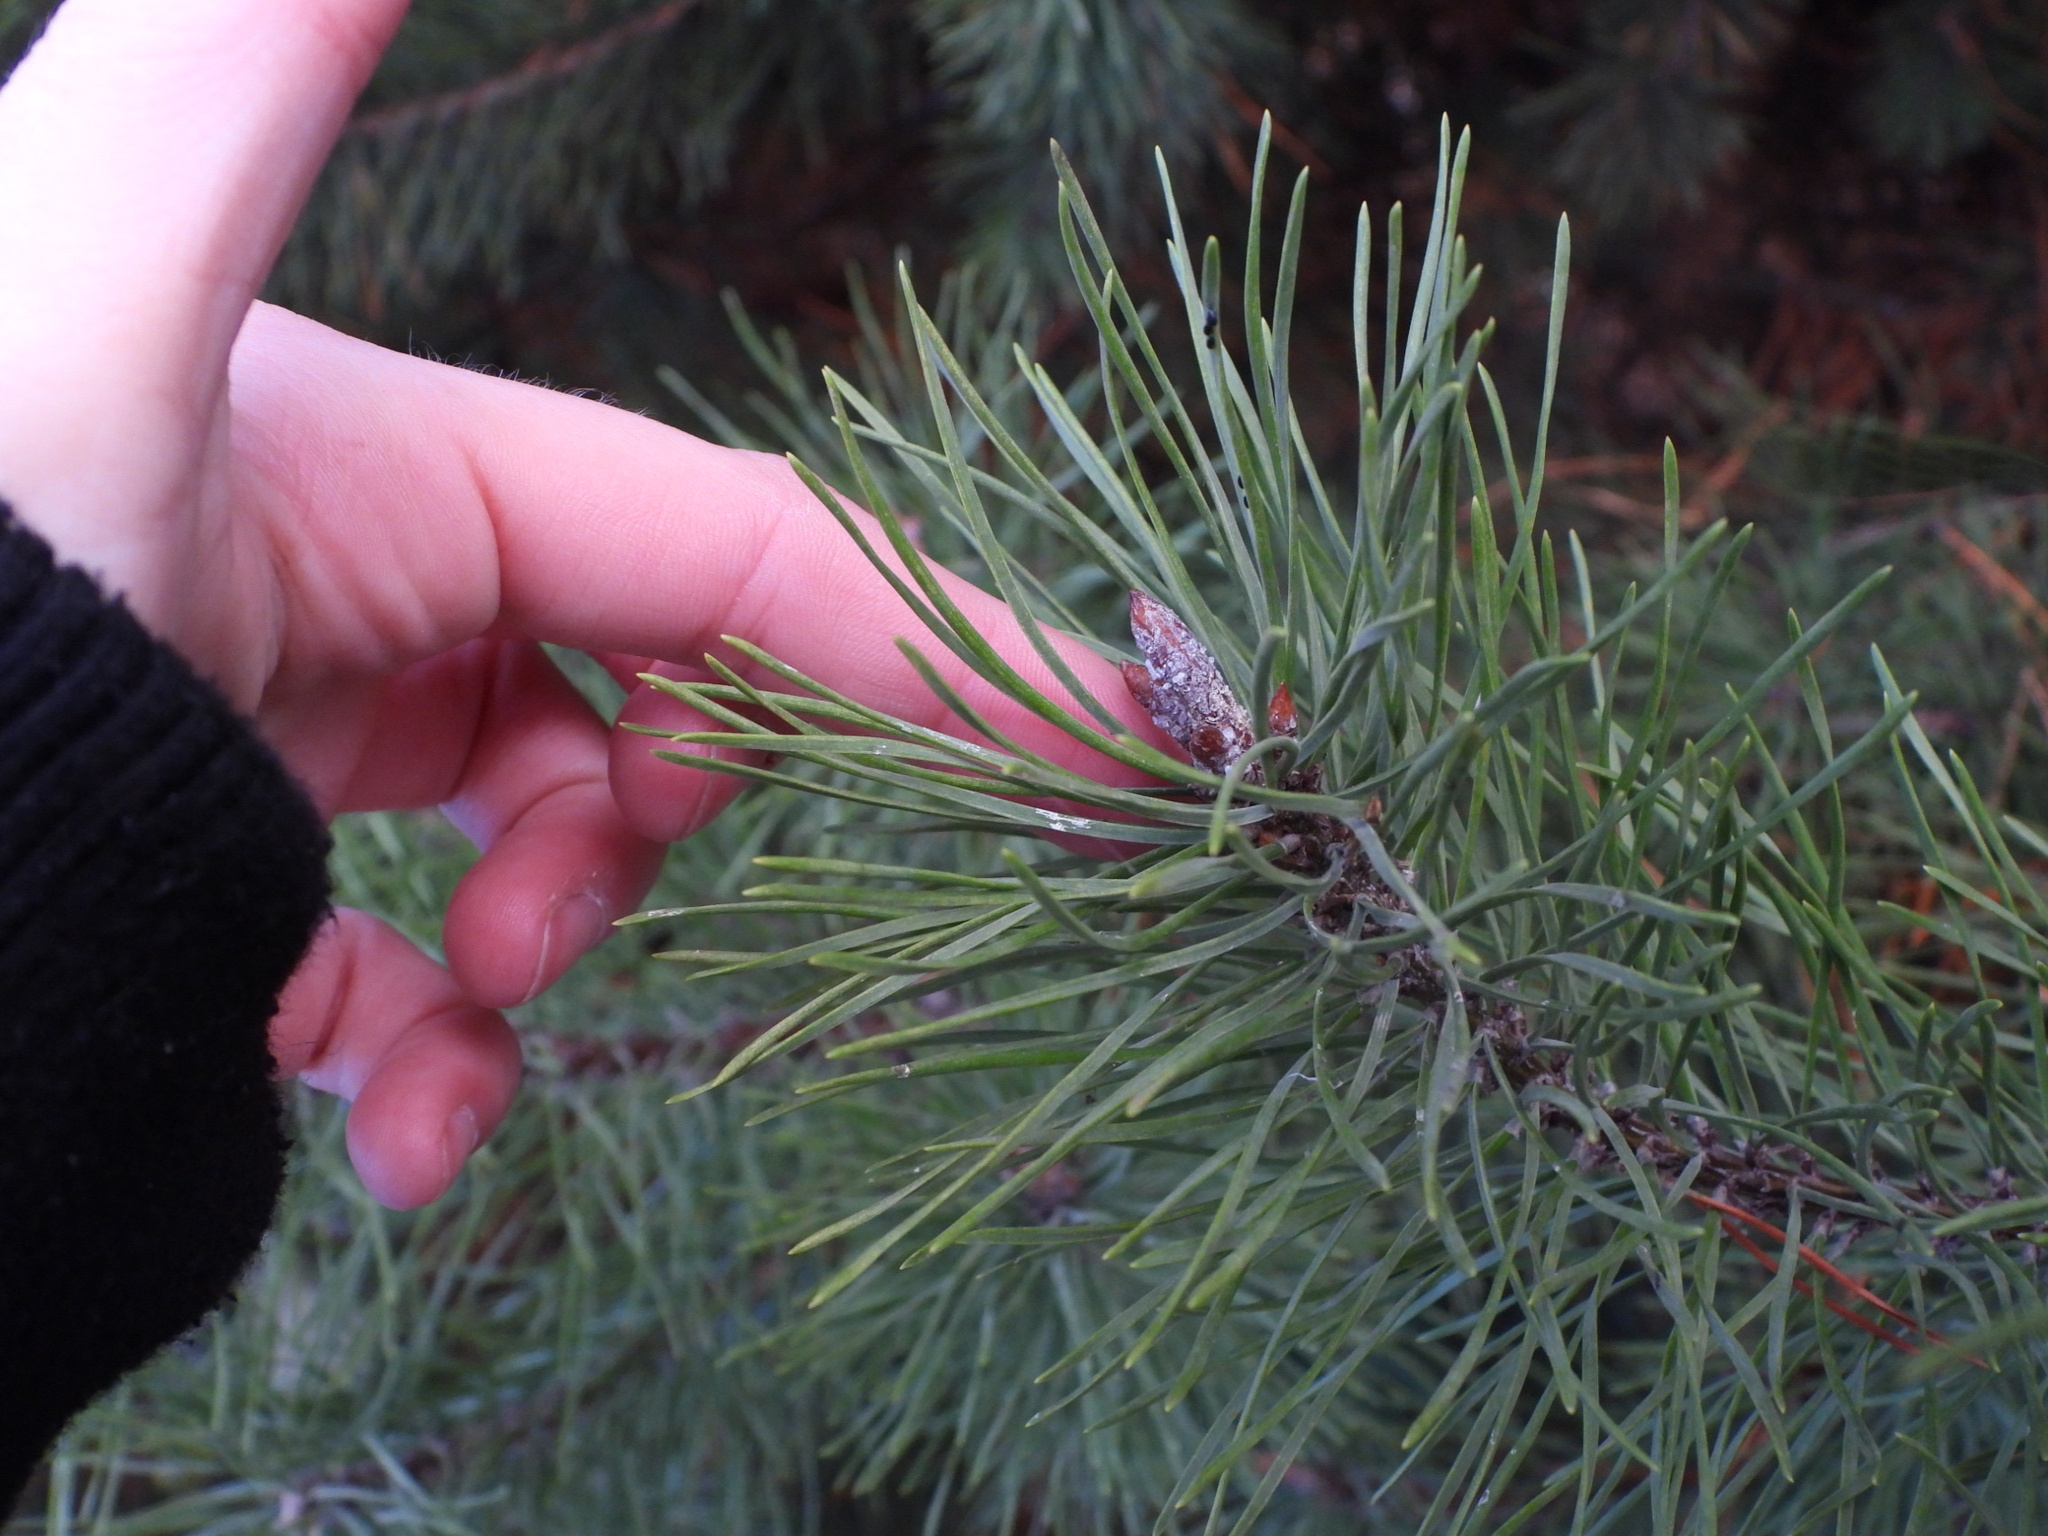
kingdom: Plantae
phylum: Tracheophyta
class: Pinopsida
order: Pinales
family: Pinaceae
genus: Pinus
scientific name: Pinus contorta
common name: Lodgepole pine
